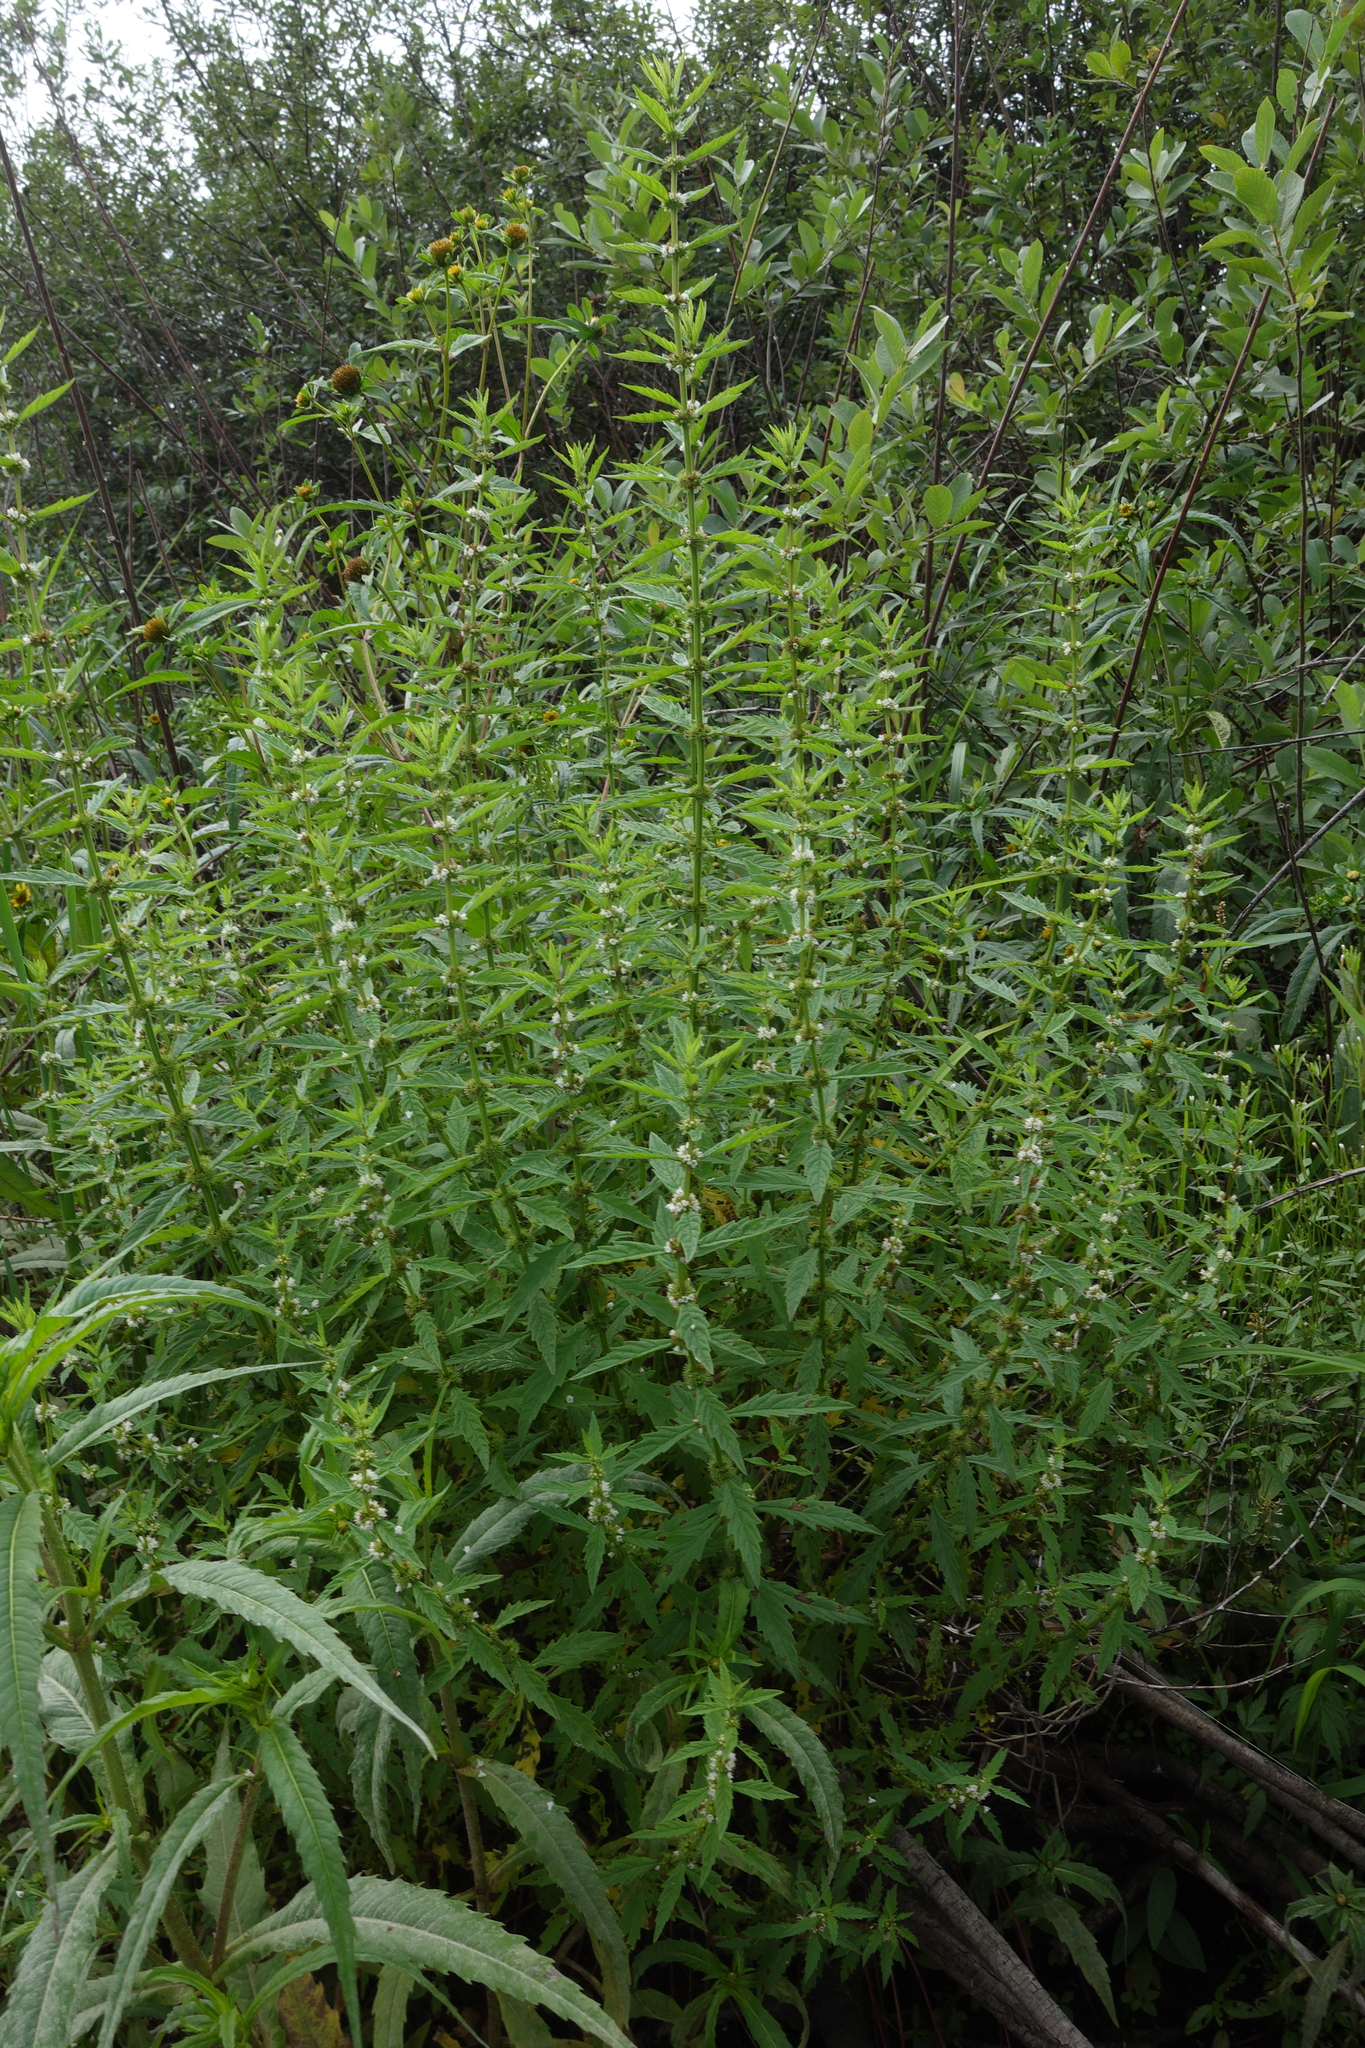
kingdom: Plantae
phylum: Tracheophyta
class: Magnoliopsida
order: Lamiales
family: Lamiaceae
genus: Lycopus
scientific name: Lycopus europaeus
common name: European bugleweed
